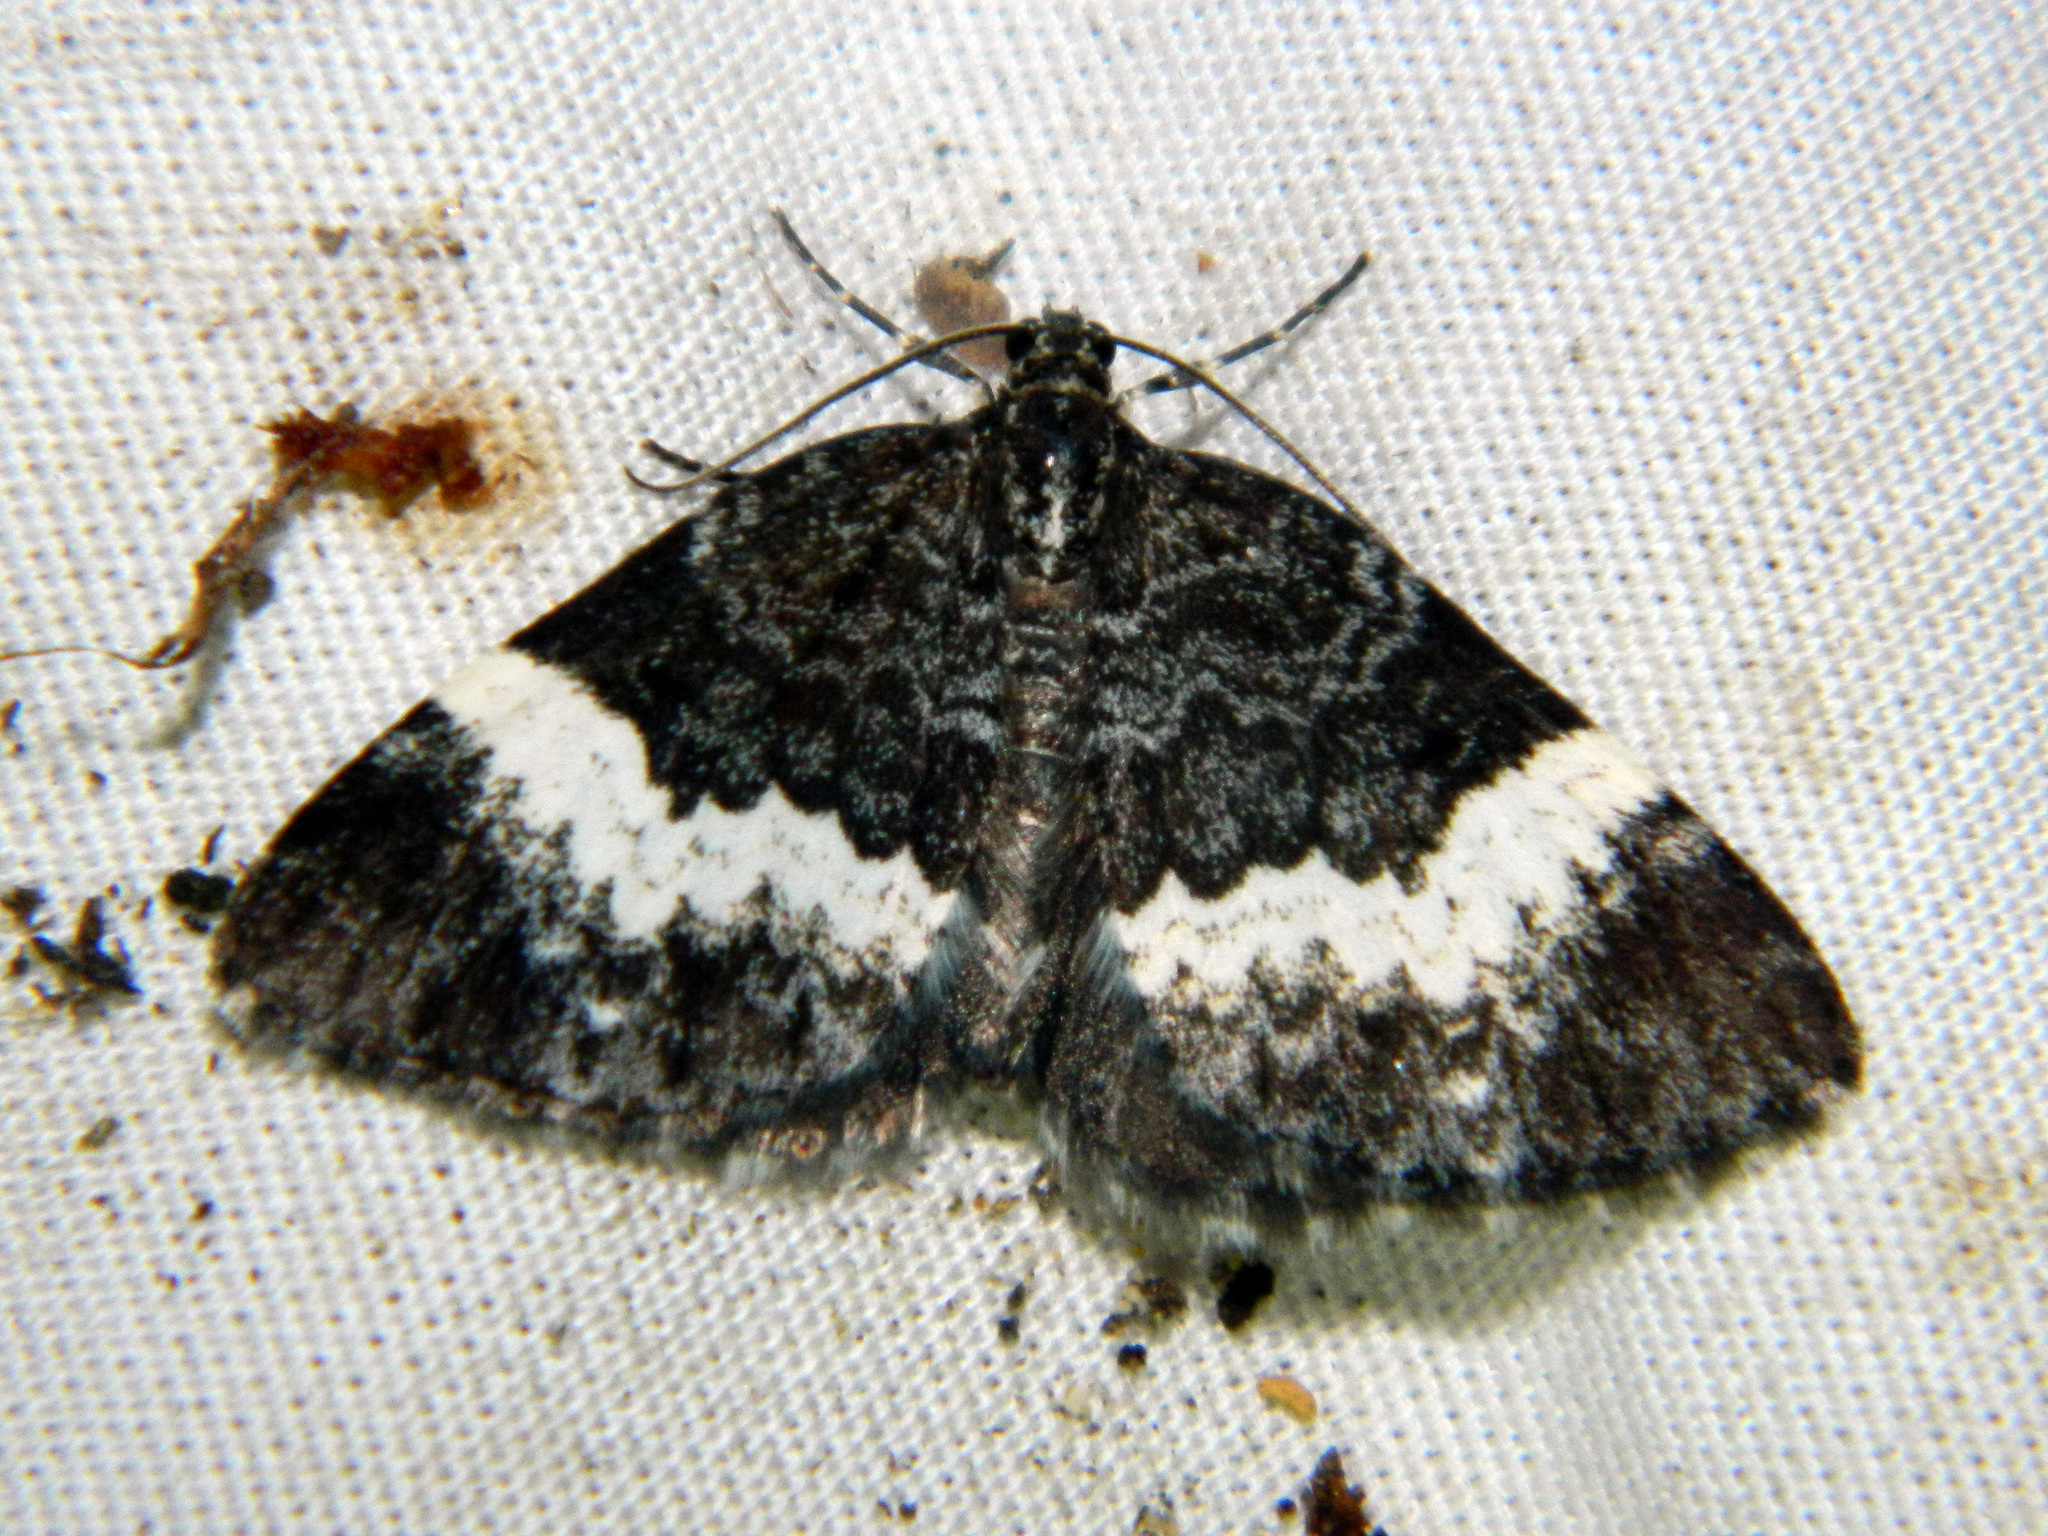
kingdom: Animalia
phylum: Arthropoda
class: Insecta
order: Lepidoptera
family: Geometridae
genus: Spargania
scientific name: Spargania luctuata
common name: White-banded carpet
